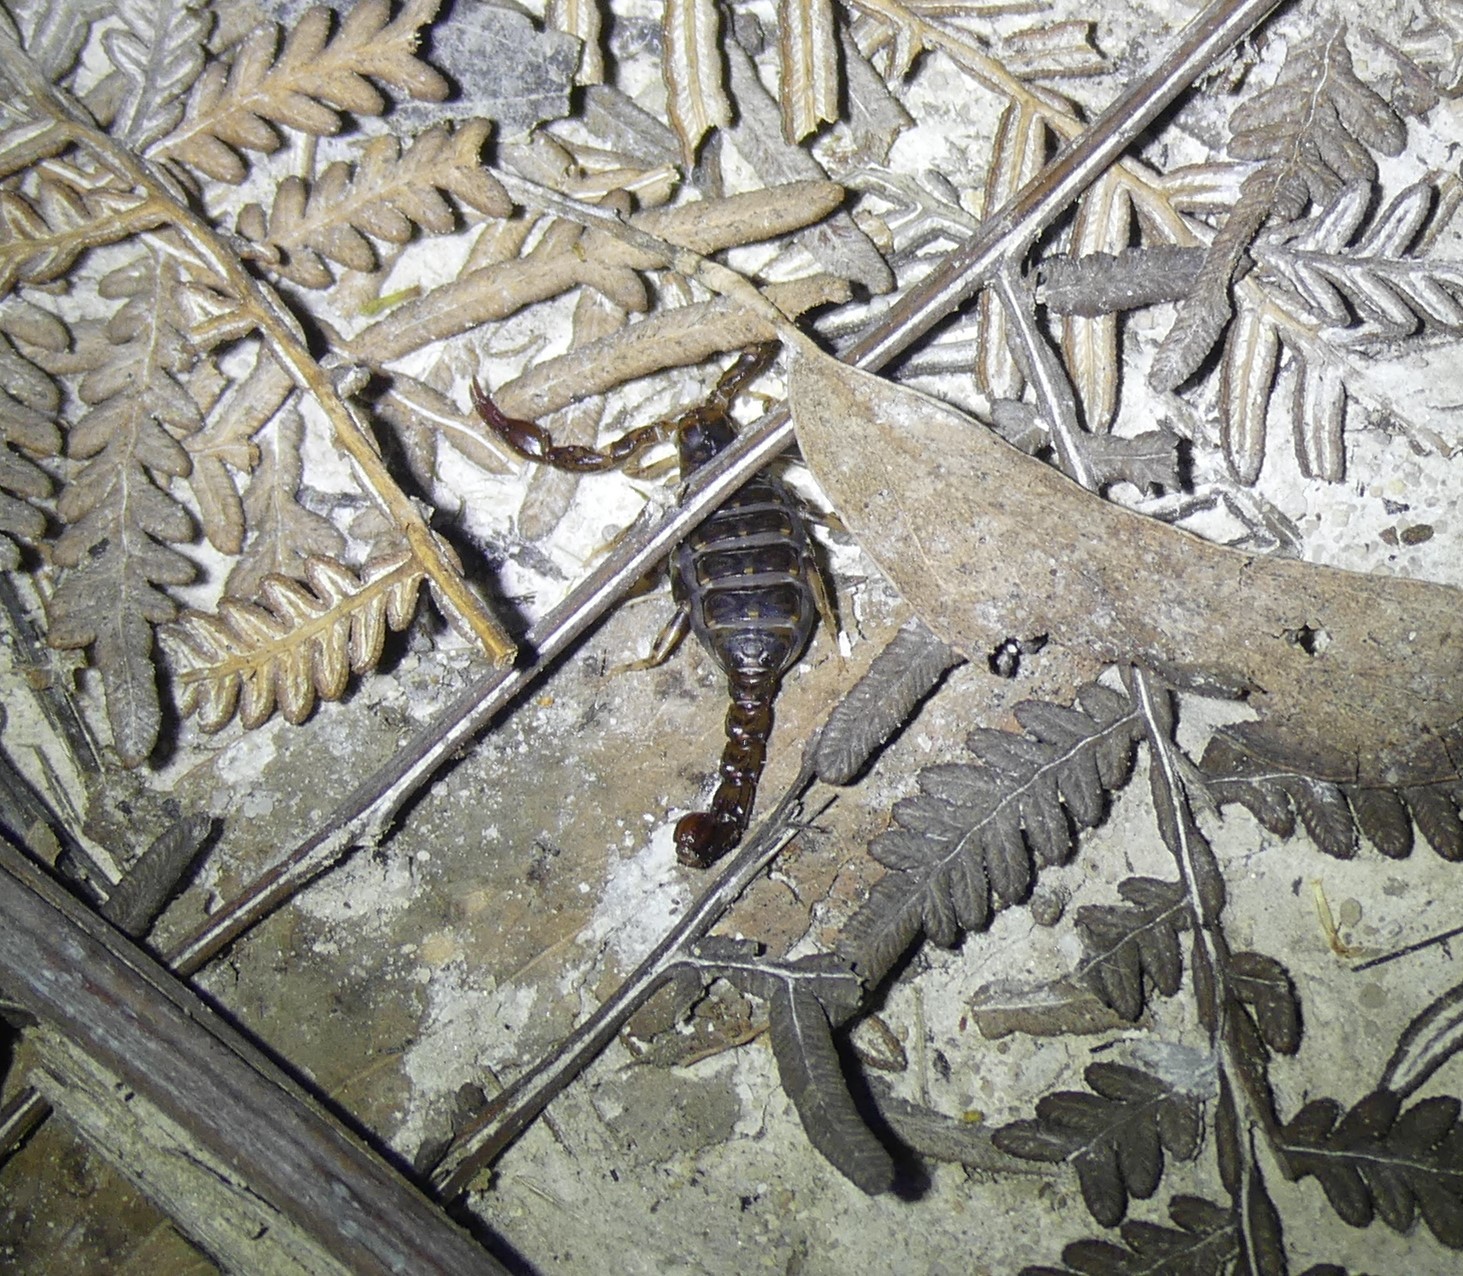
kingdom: Animalia
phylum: Arthropoda
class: Arachnida
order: Scorpiones
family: Bothriuridae
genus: Cercophonius
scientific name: Cercophonius squama
